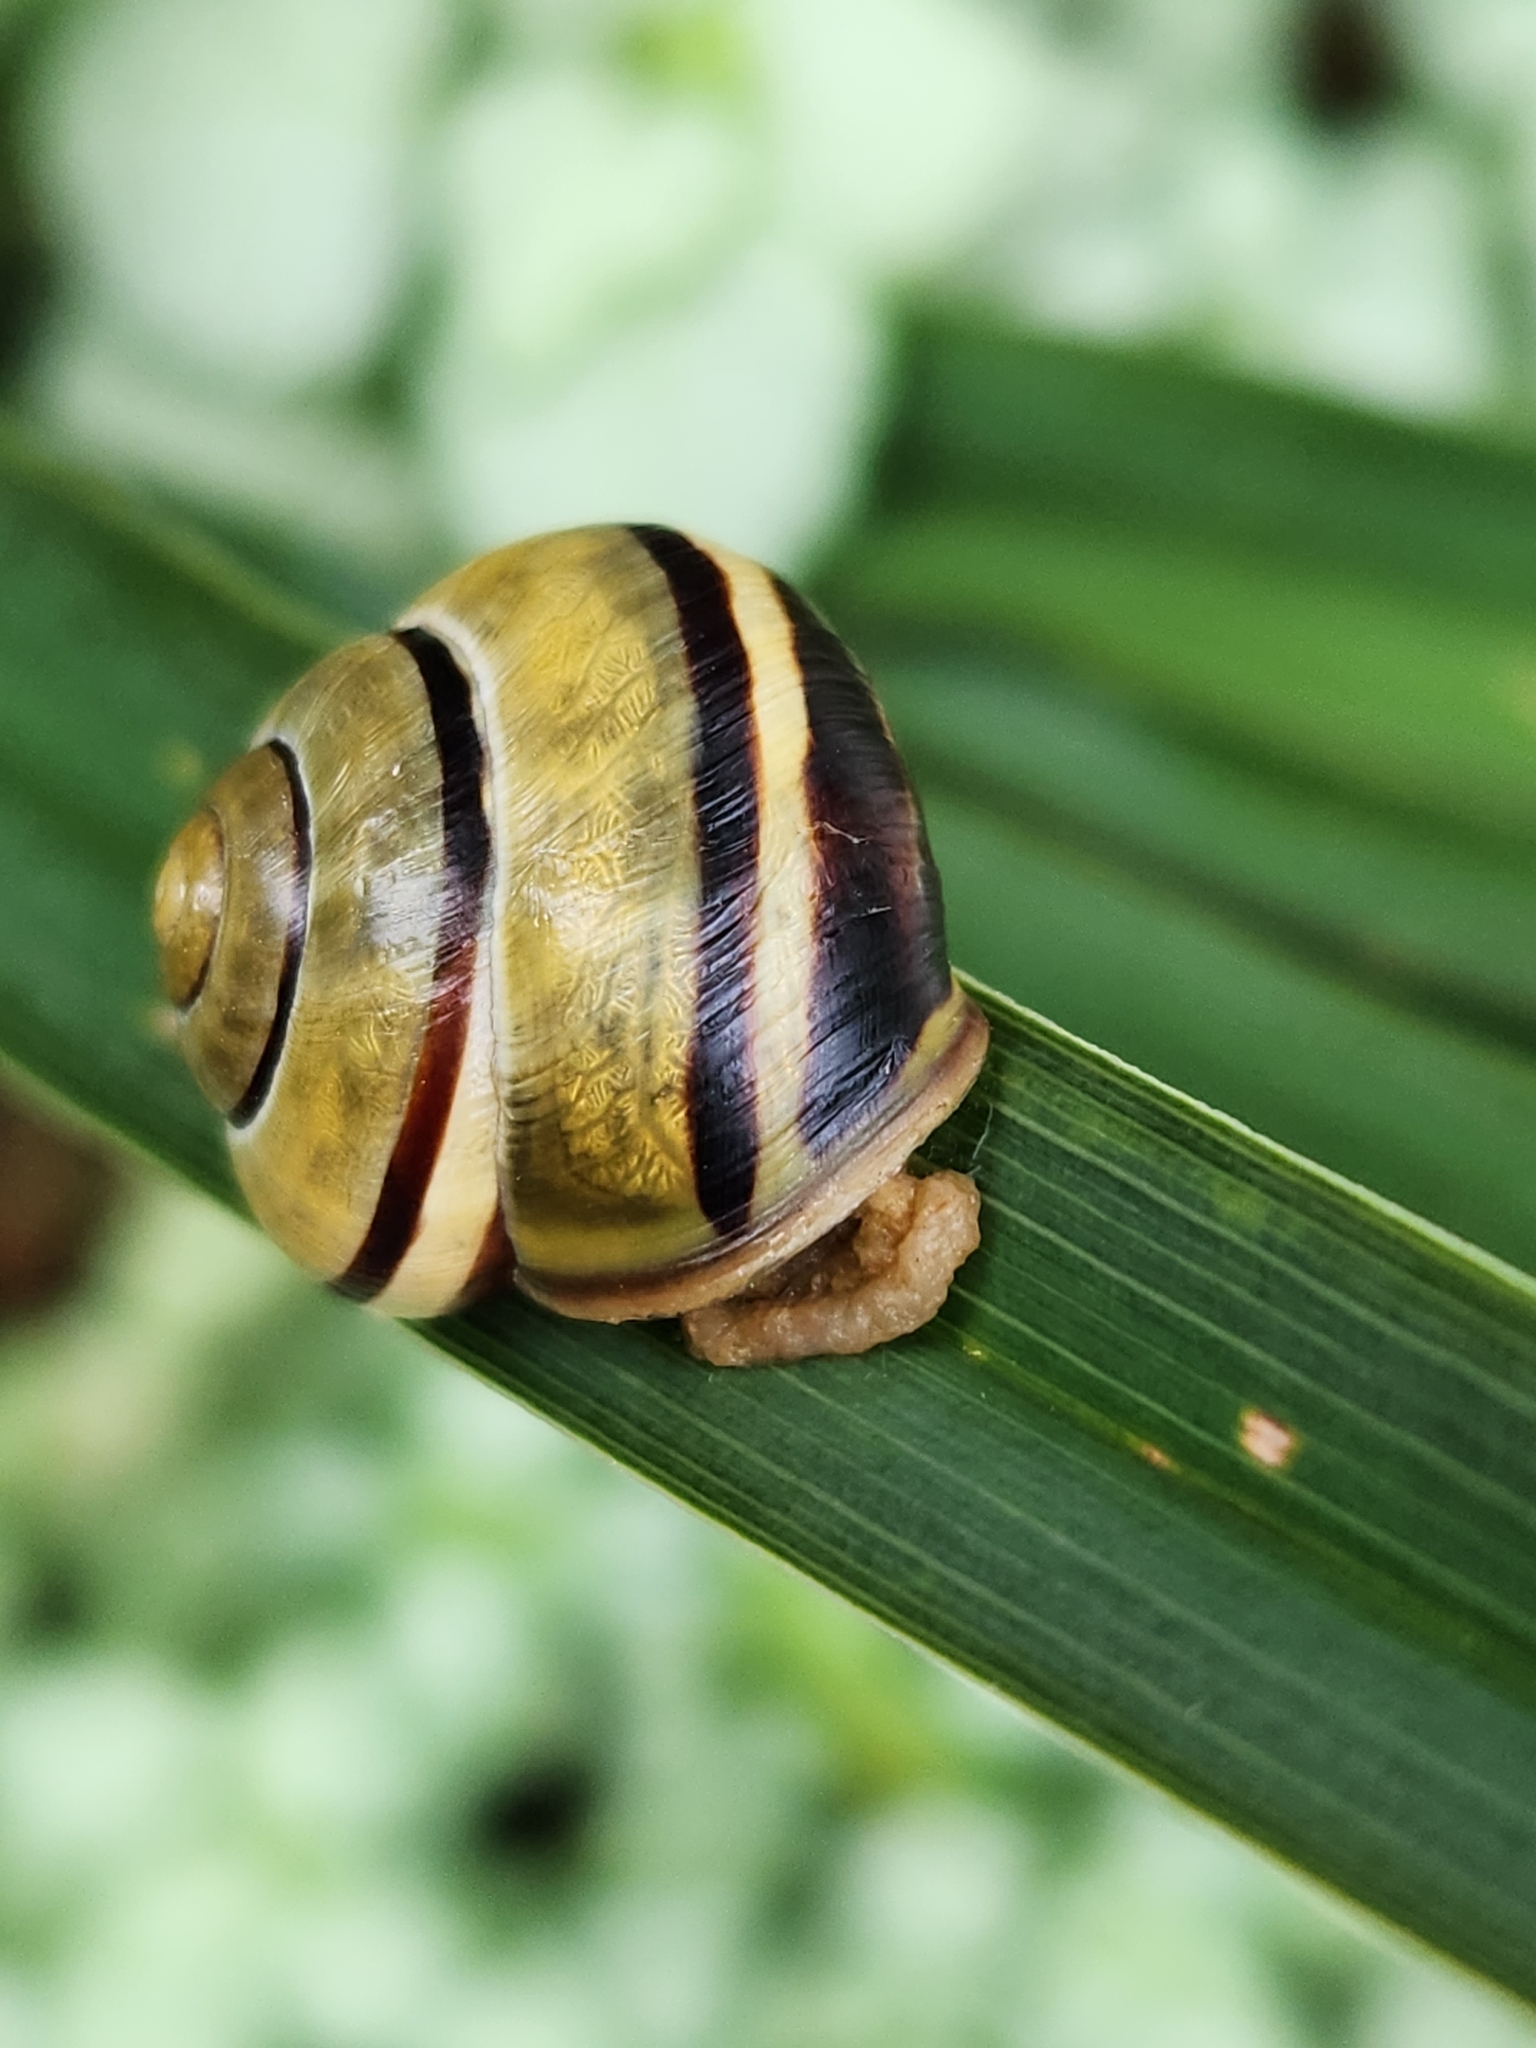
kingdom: Animalia
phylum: Mollusca
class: Gastropoda
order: Stylommatophora
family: Helicidae
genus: Cepaea
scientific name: Cepaea nemoralis
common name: Grovesnail
